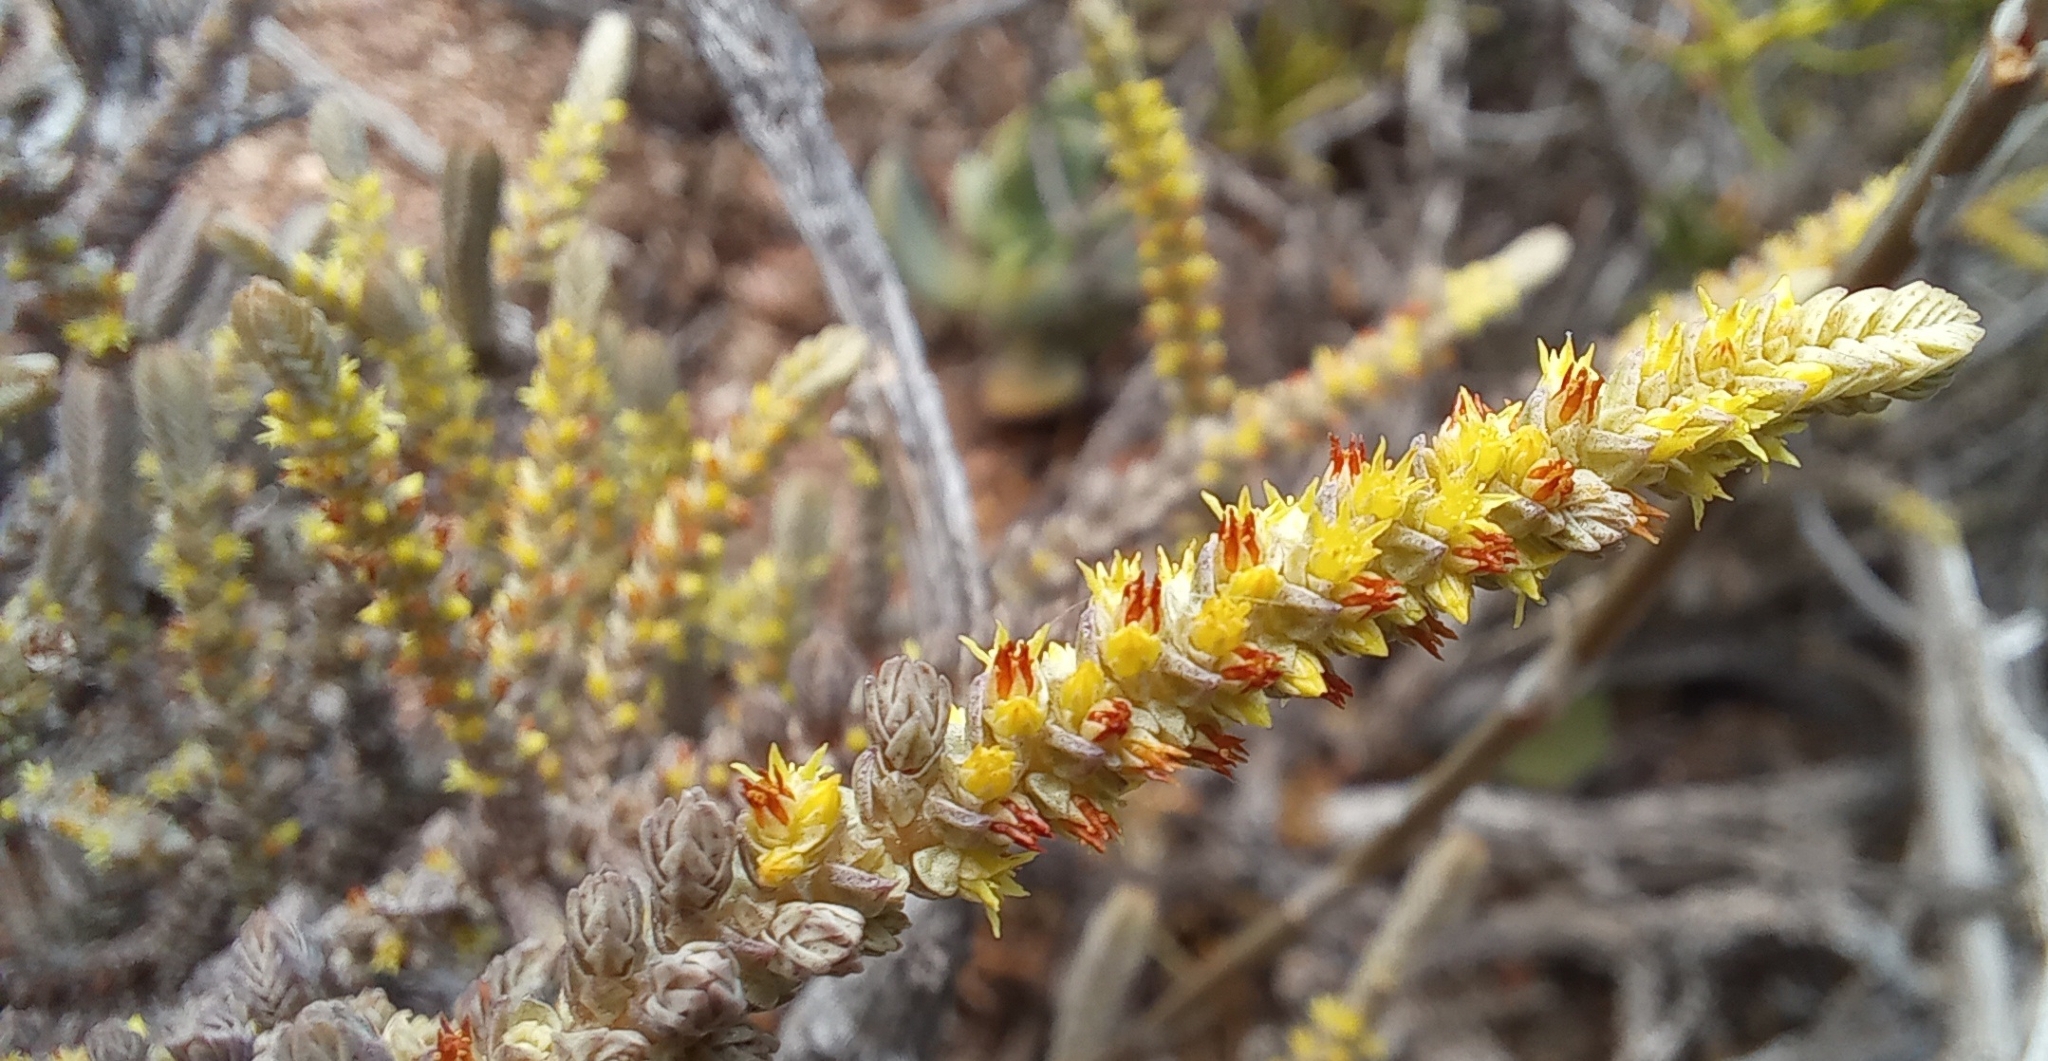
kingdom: Plantae
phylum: Tracheophyta
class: Magnoliopsida
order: Saxifragales
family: Crassulaceae
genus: Crassula
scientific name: Crassula muscosa
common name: Toy-cypress
